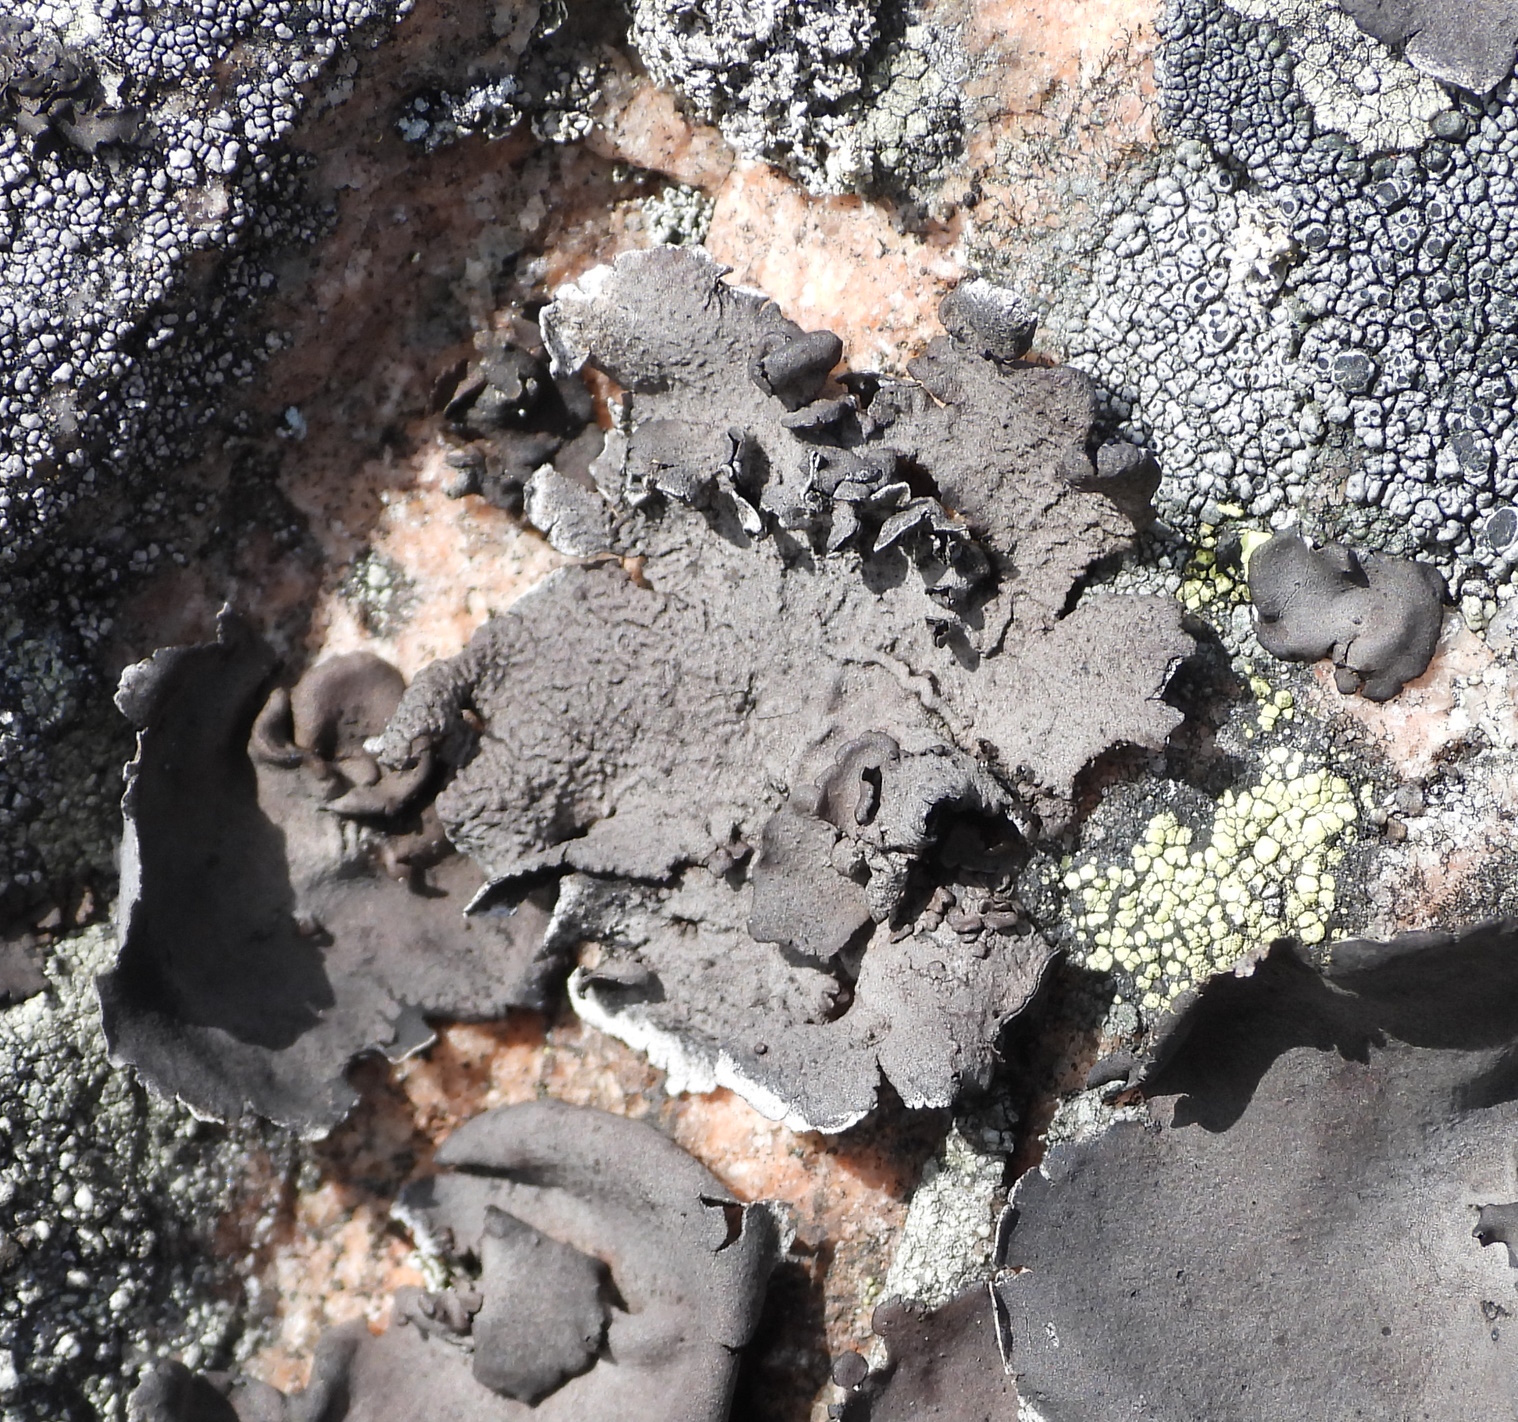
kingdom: Fungi
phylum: Ascomycota
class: Lecanoromycetes
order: Umbilicariales
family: Umbilicariaceae
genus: Umbilicaria
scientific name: Umbilicaria nylanderiana
